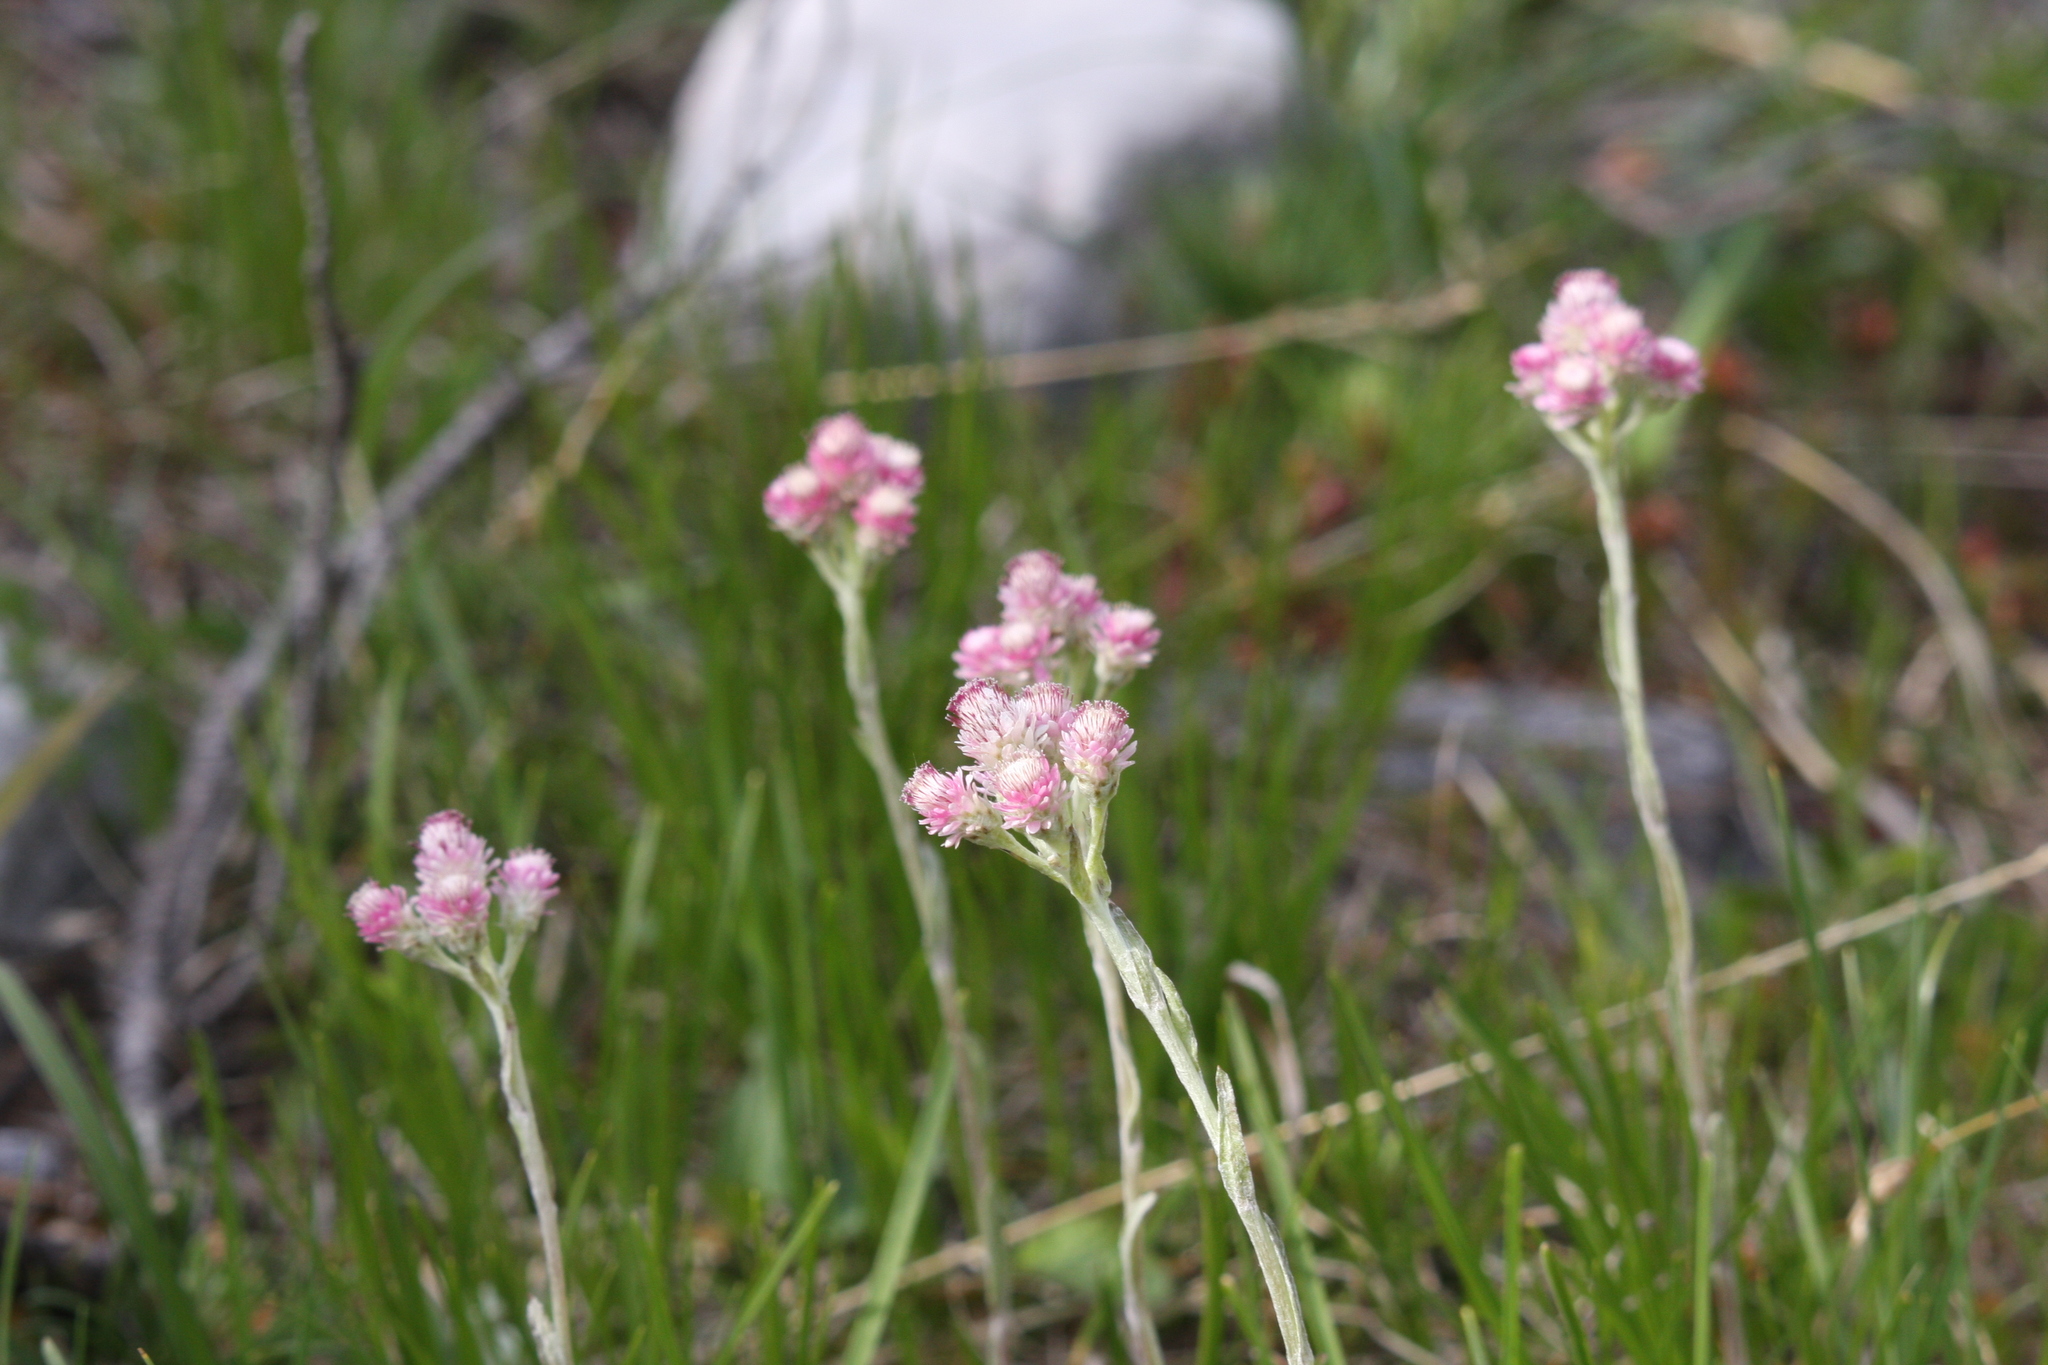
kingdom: Plantae
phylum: Tracheophyta
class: Magnoliopsida
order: Asterales
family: Asteraceae
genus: Antennaria
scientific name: Antennaria dioica
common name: Mountain everlasting
